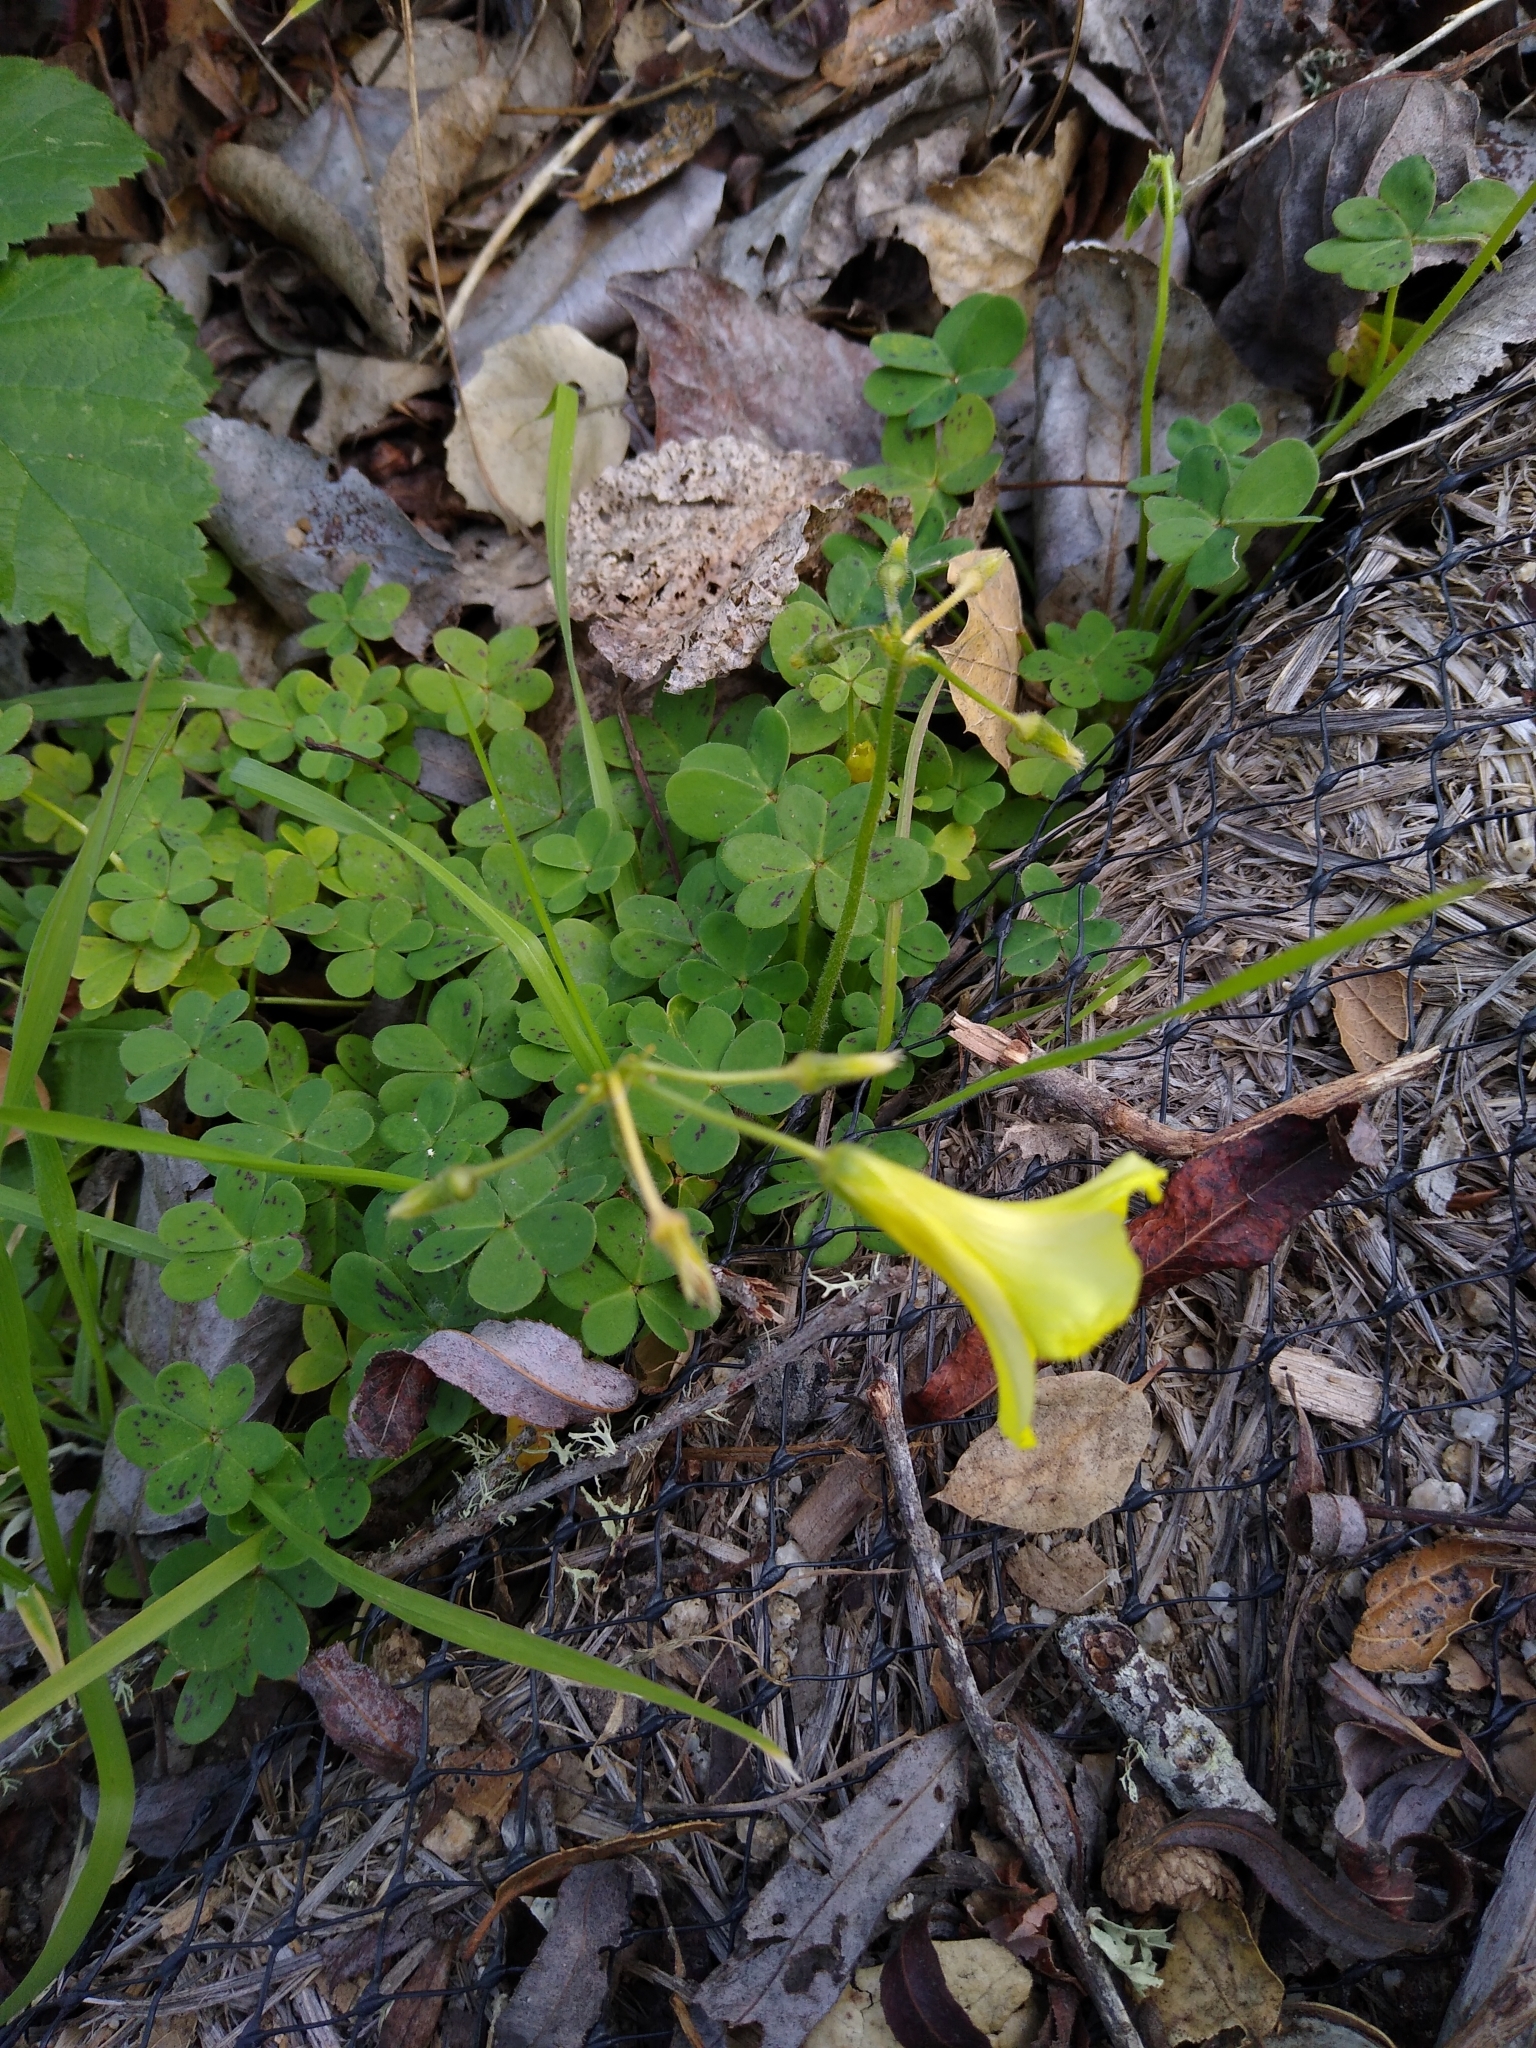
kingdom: Plantae
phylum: Tracheophyta
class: Magnoliopsida
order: Oxalidales
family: Oxalidaceae
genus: Oxalis
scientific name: Oxalis pes-caprae
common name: Bermuda-buttercup
